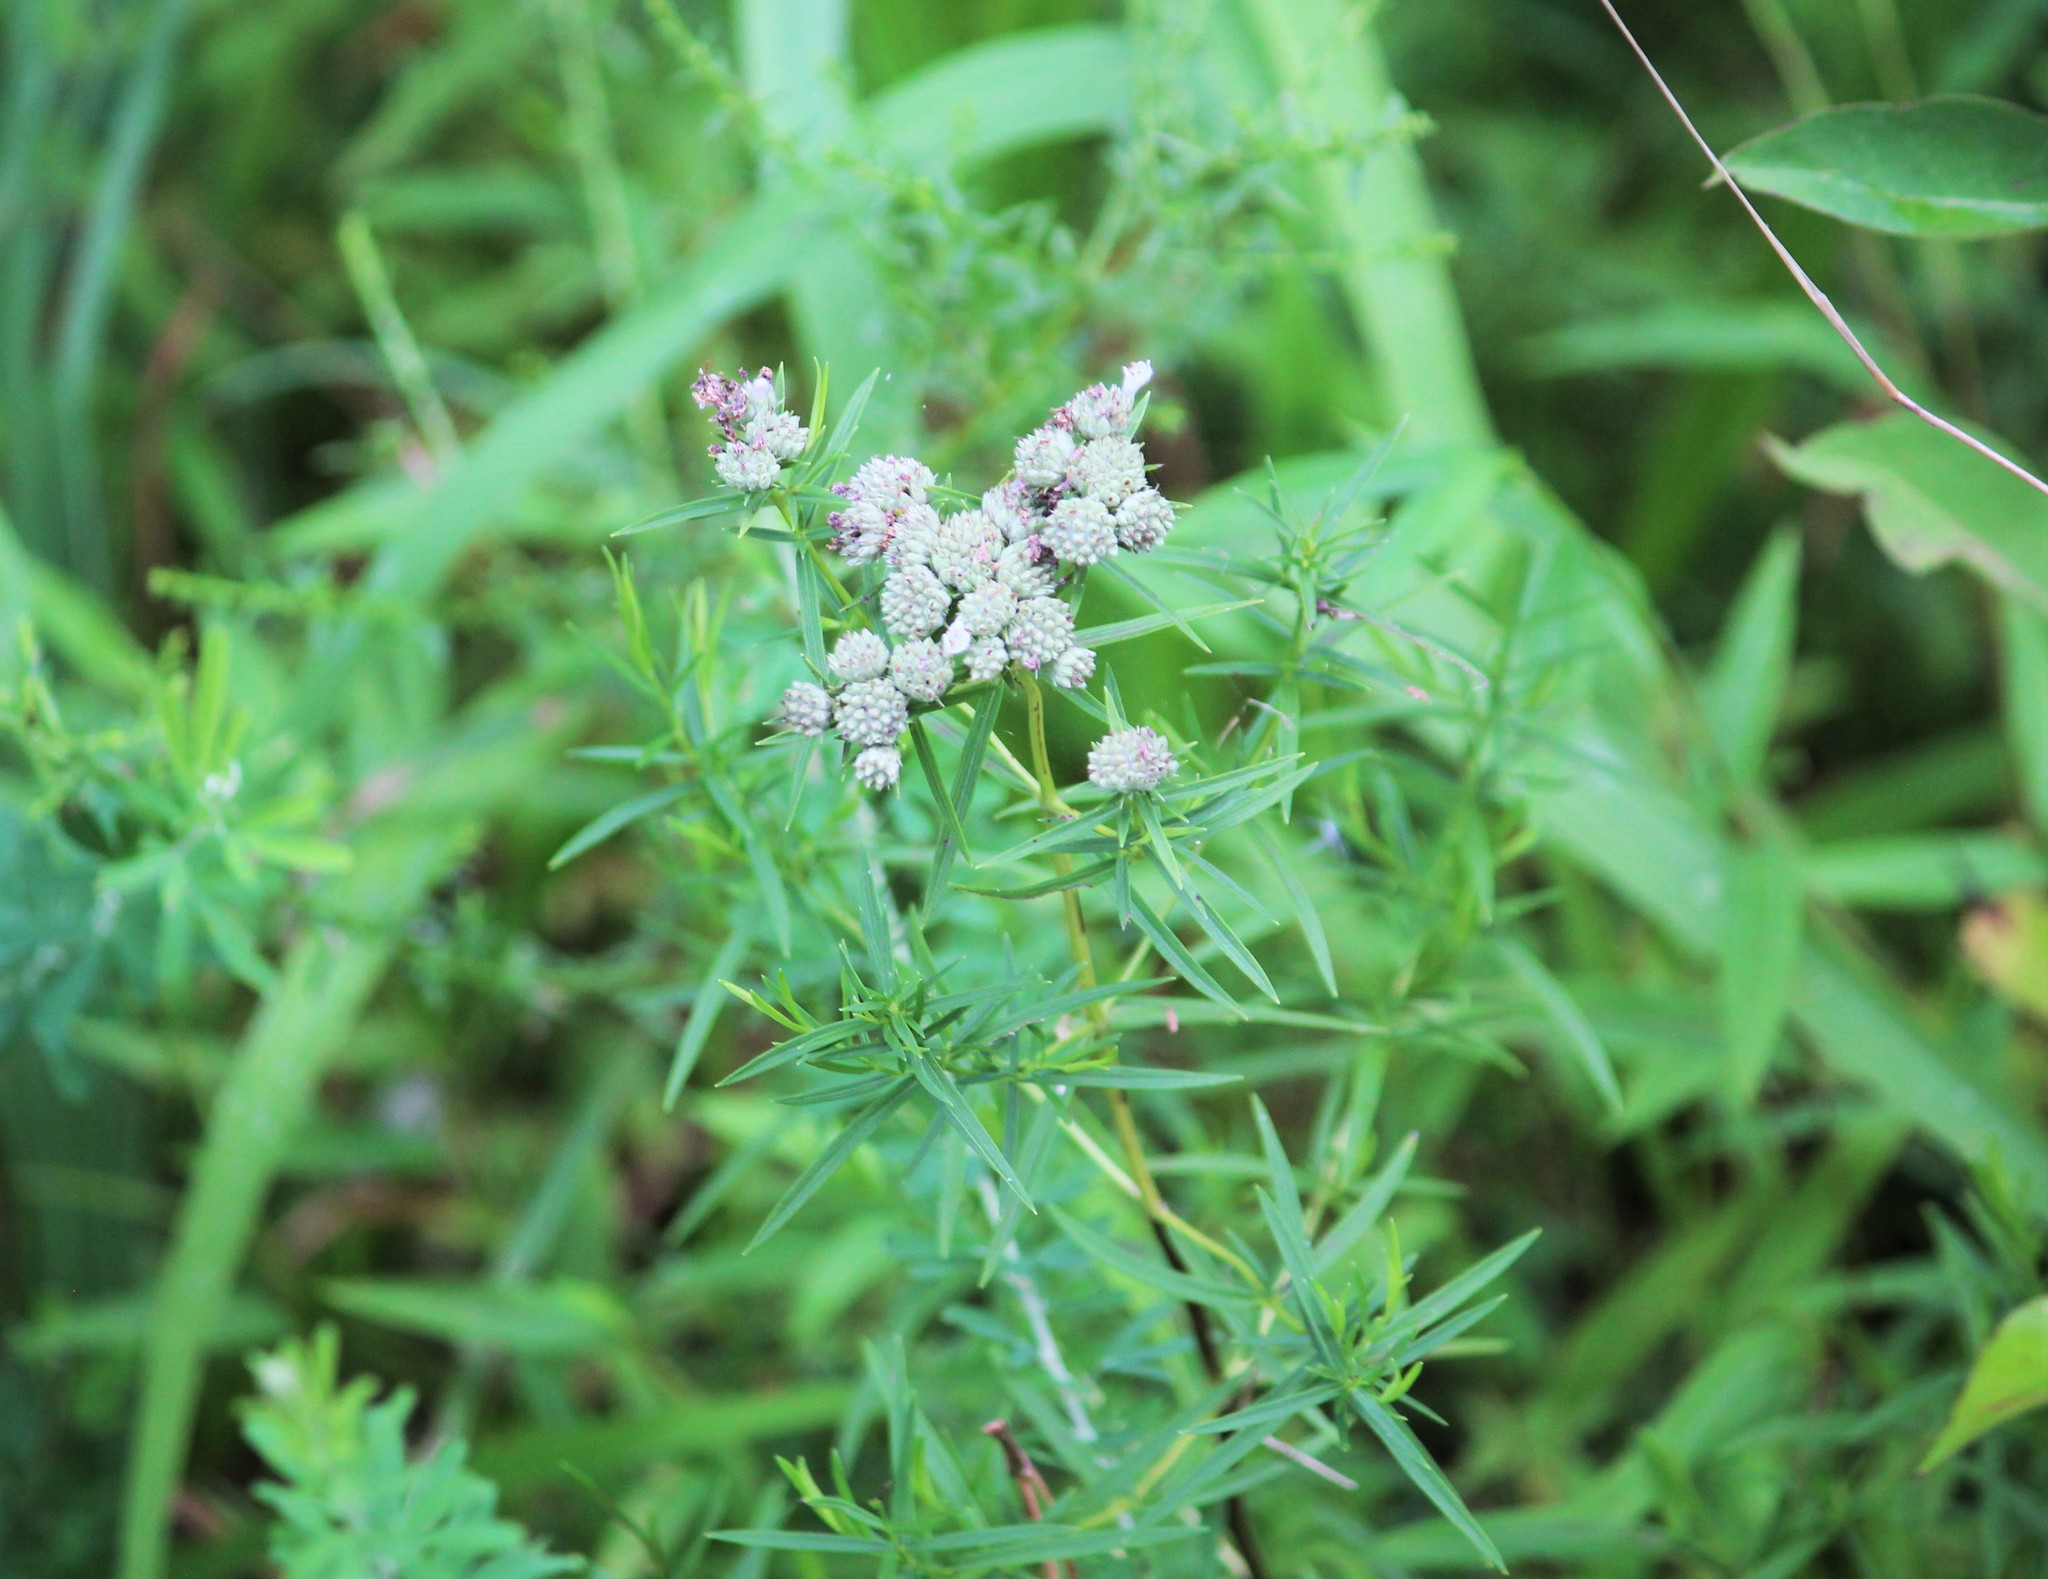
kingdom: Plantae
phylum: Tracheophyta
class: Magnoliopsida
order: Lamiales
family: Lamiaceae
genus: Pycnanthemum
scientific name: Pycnanthemum tenuifolium
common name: Narrow-leaf mountain-mint
